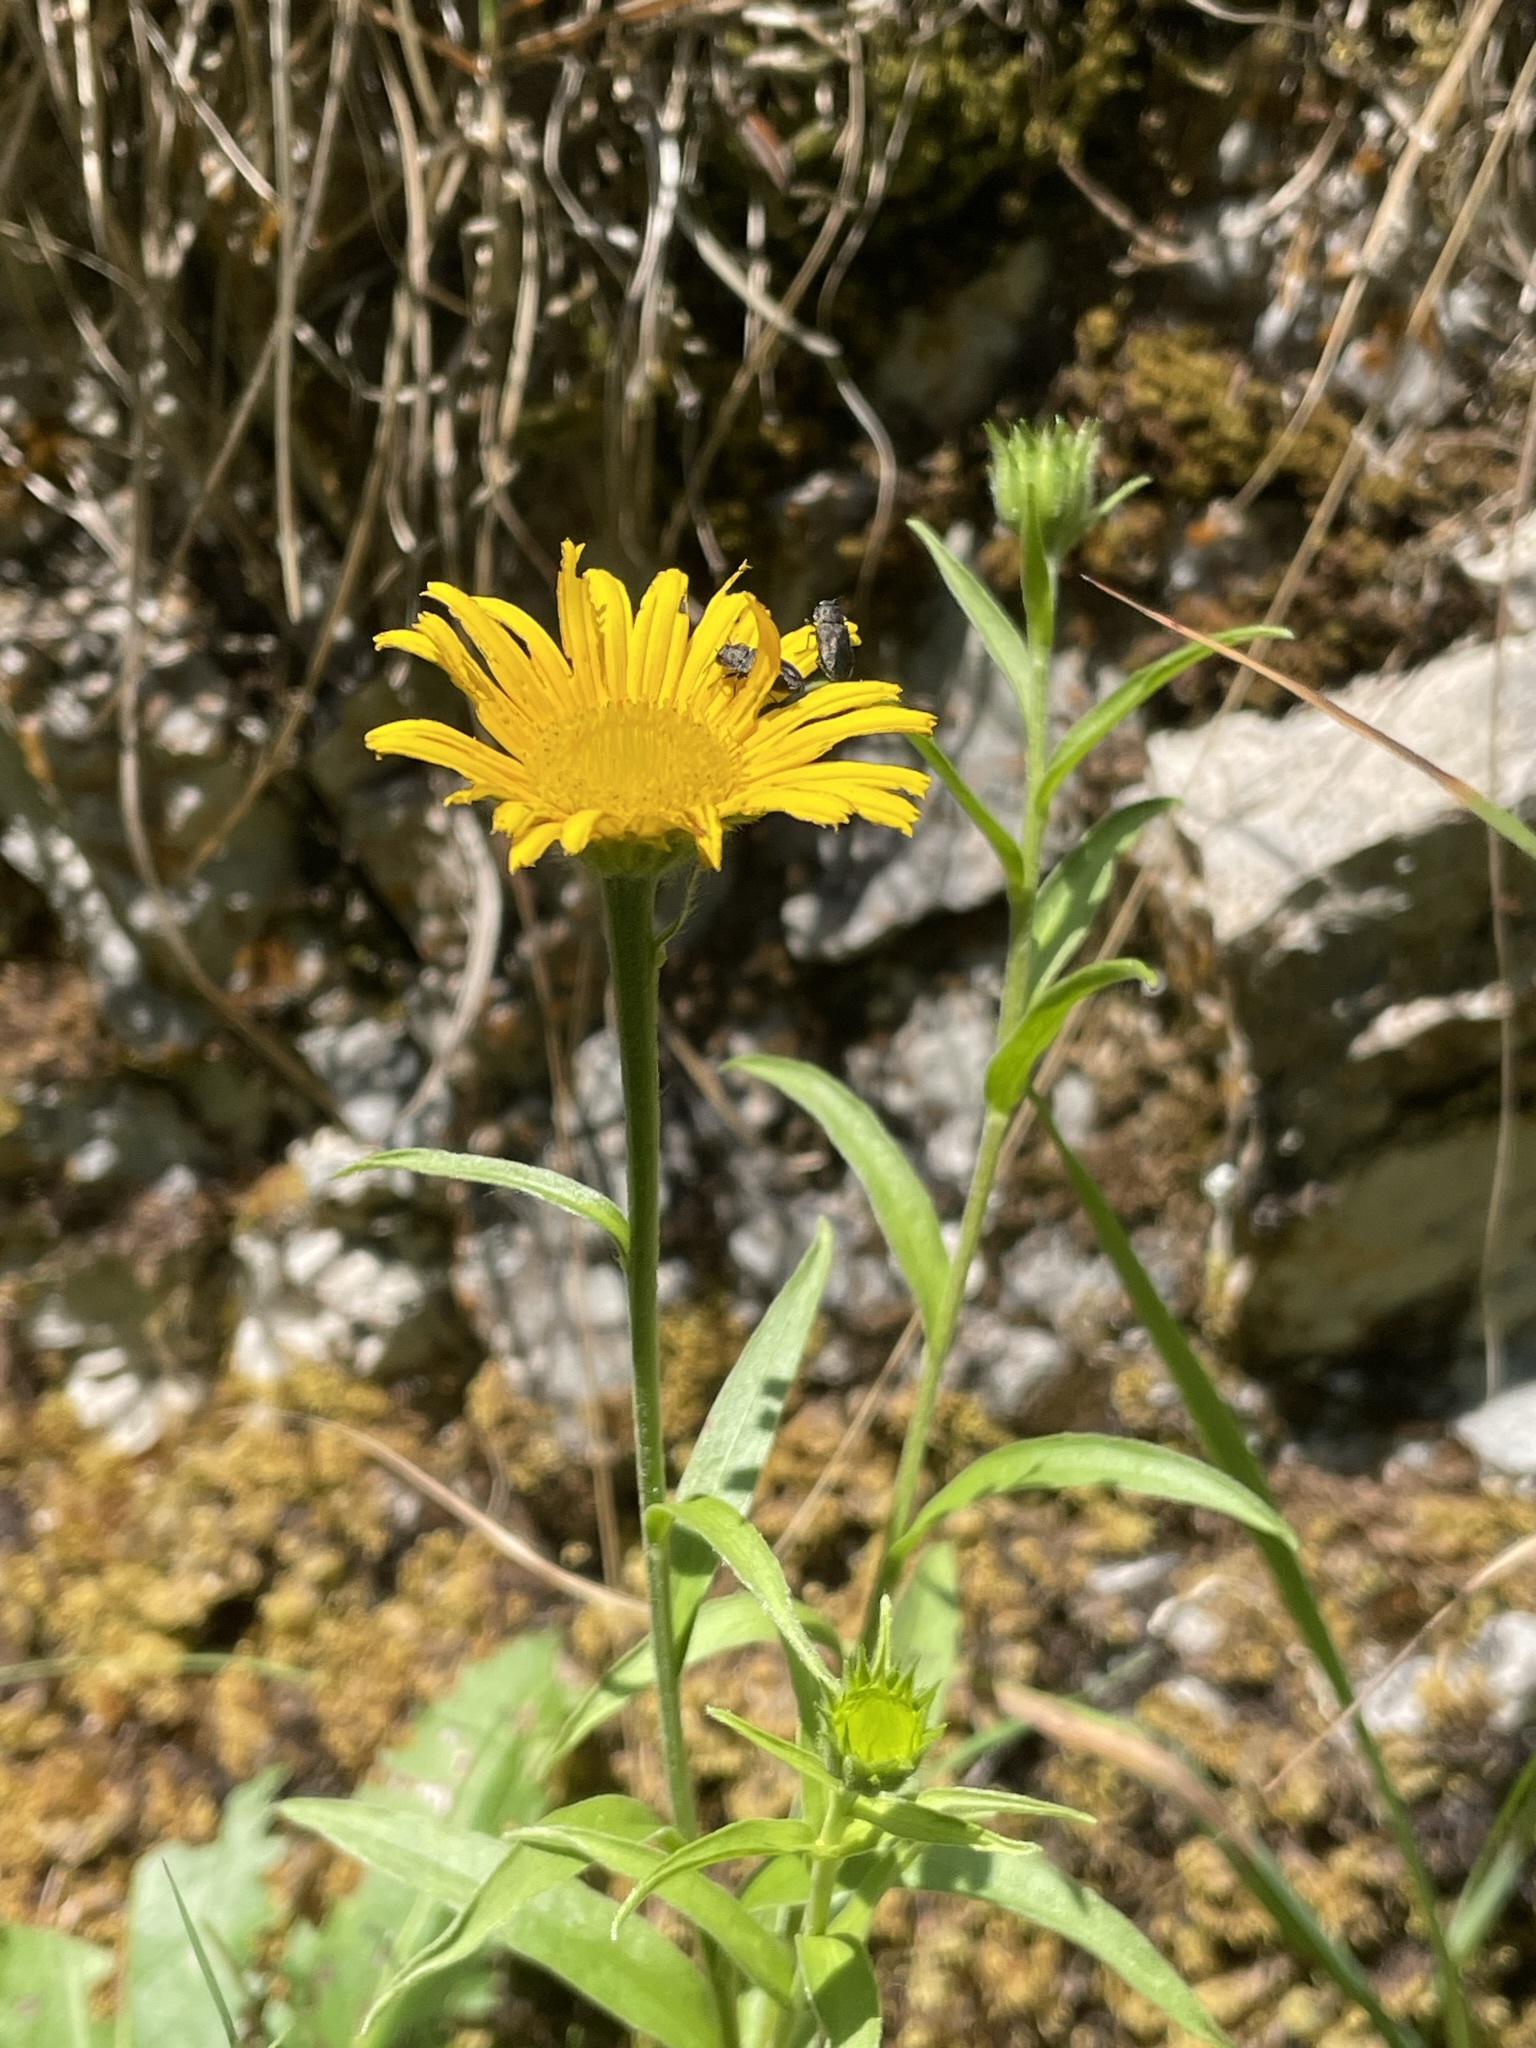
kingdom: Plantae
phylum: Tracheophyta
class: Magnoliopsida
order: Asterales
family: Asteraceae
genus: Buphthalmum
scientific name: Buphthalmum salicifolium
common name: Willow-leaved yellow-oxeye
